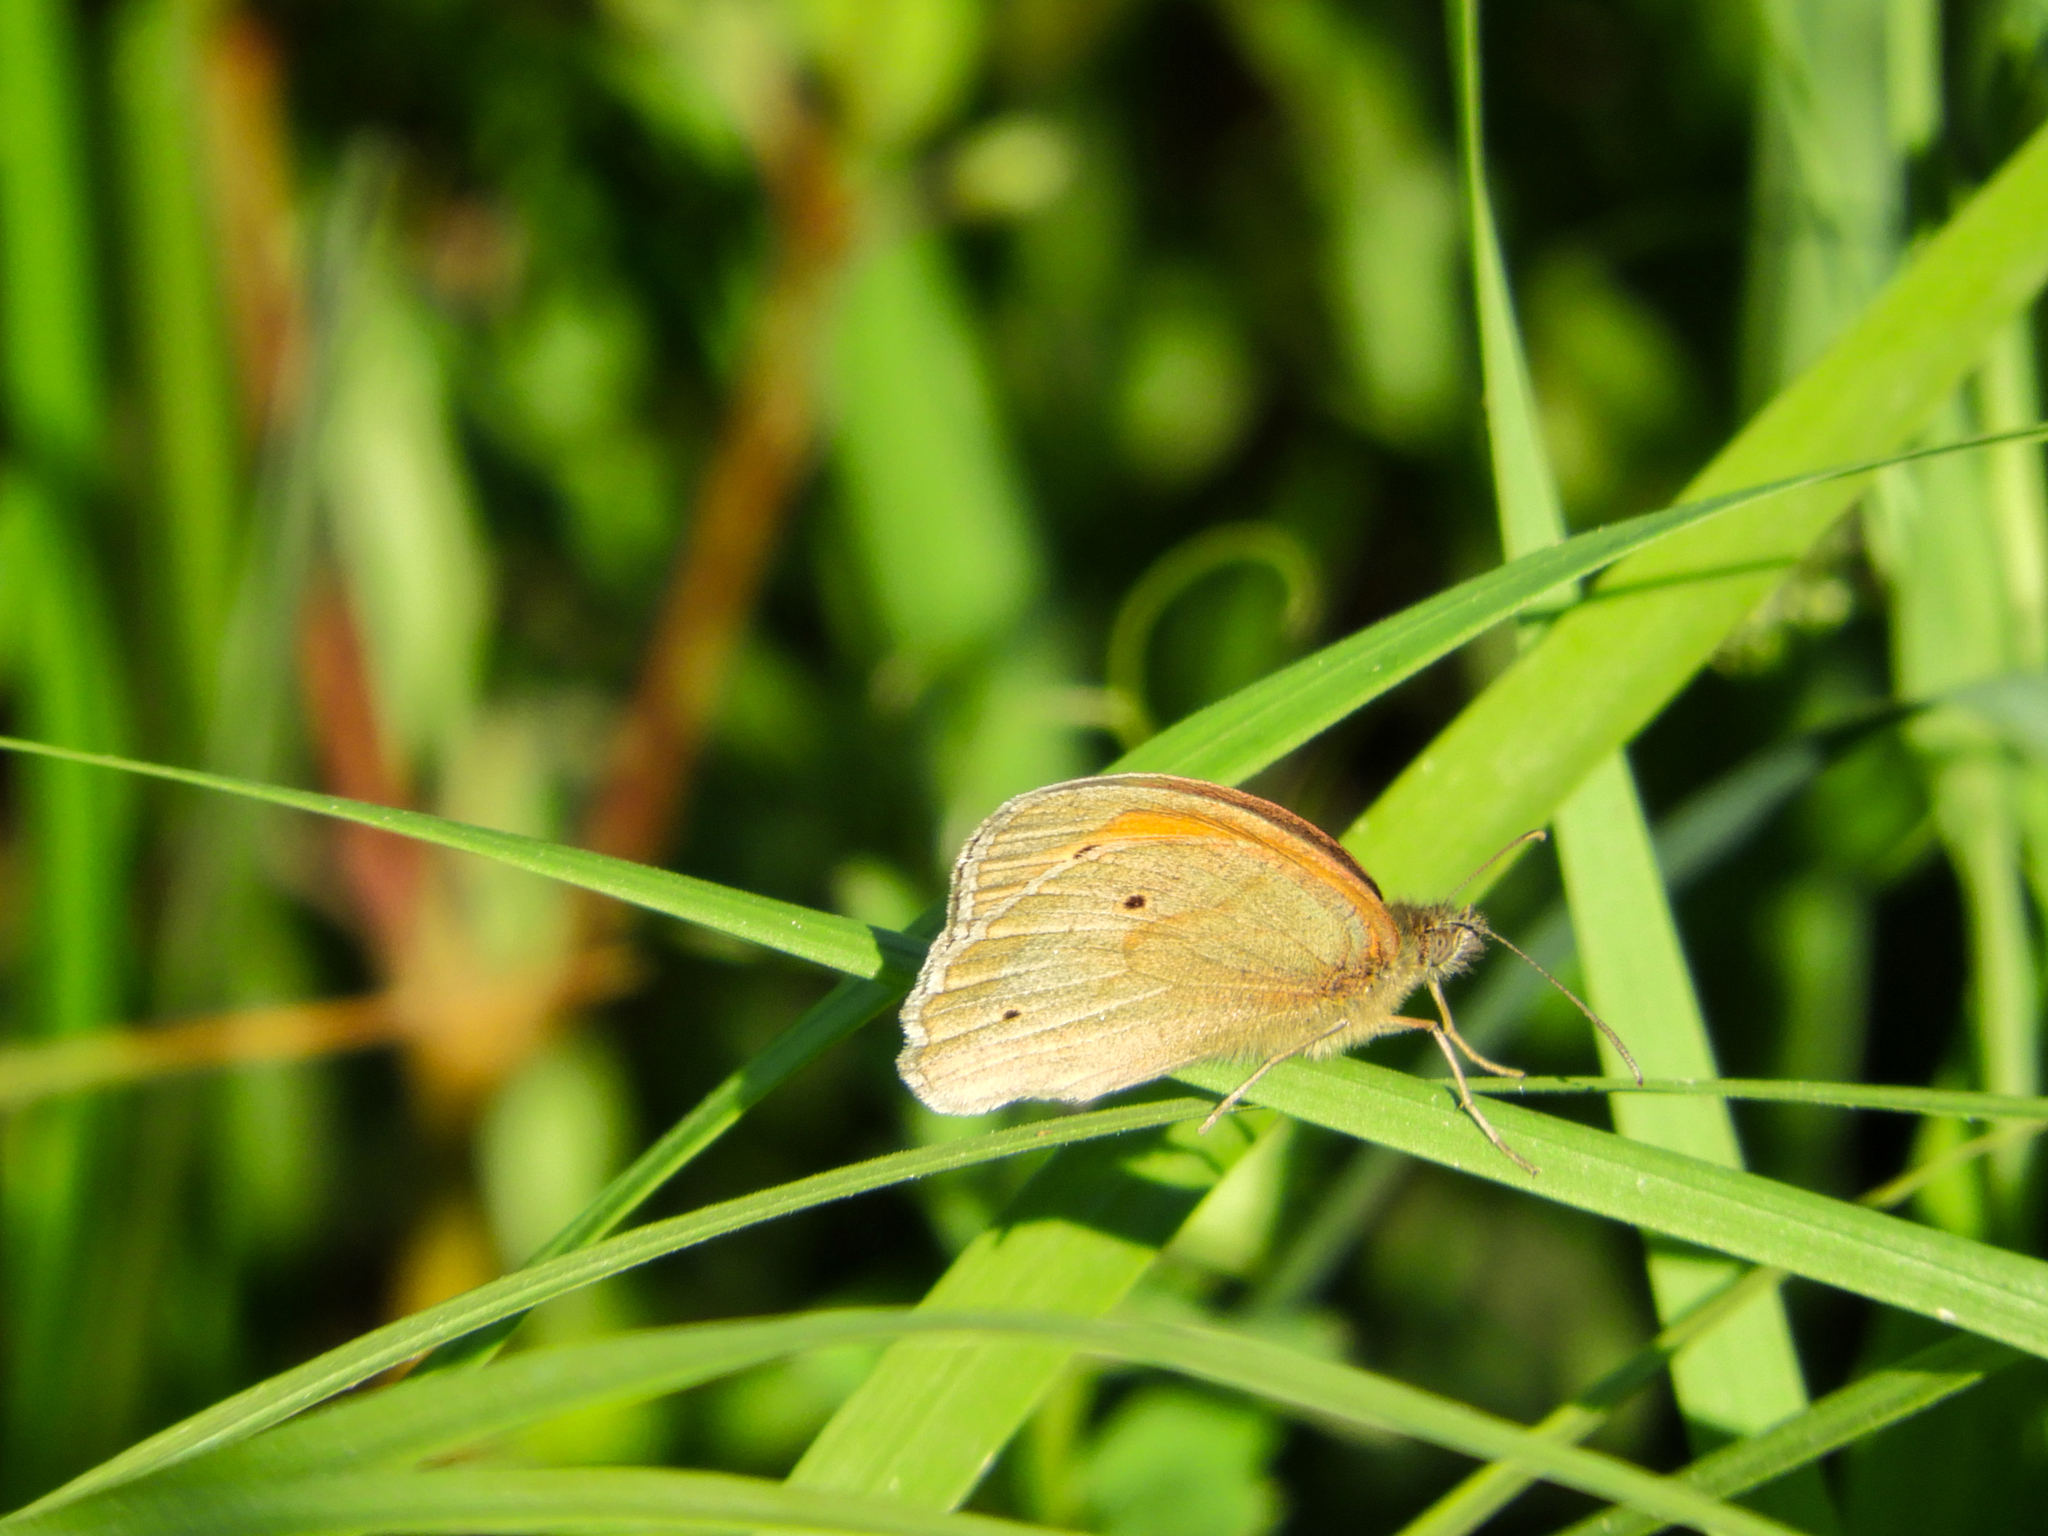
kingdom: Animalia
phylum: Arthropoda
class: Insecta
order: Lepidoptera
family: Nymphalidae
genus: Maniola
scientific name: Maniola jurtina
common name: Meadow brown
